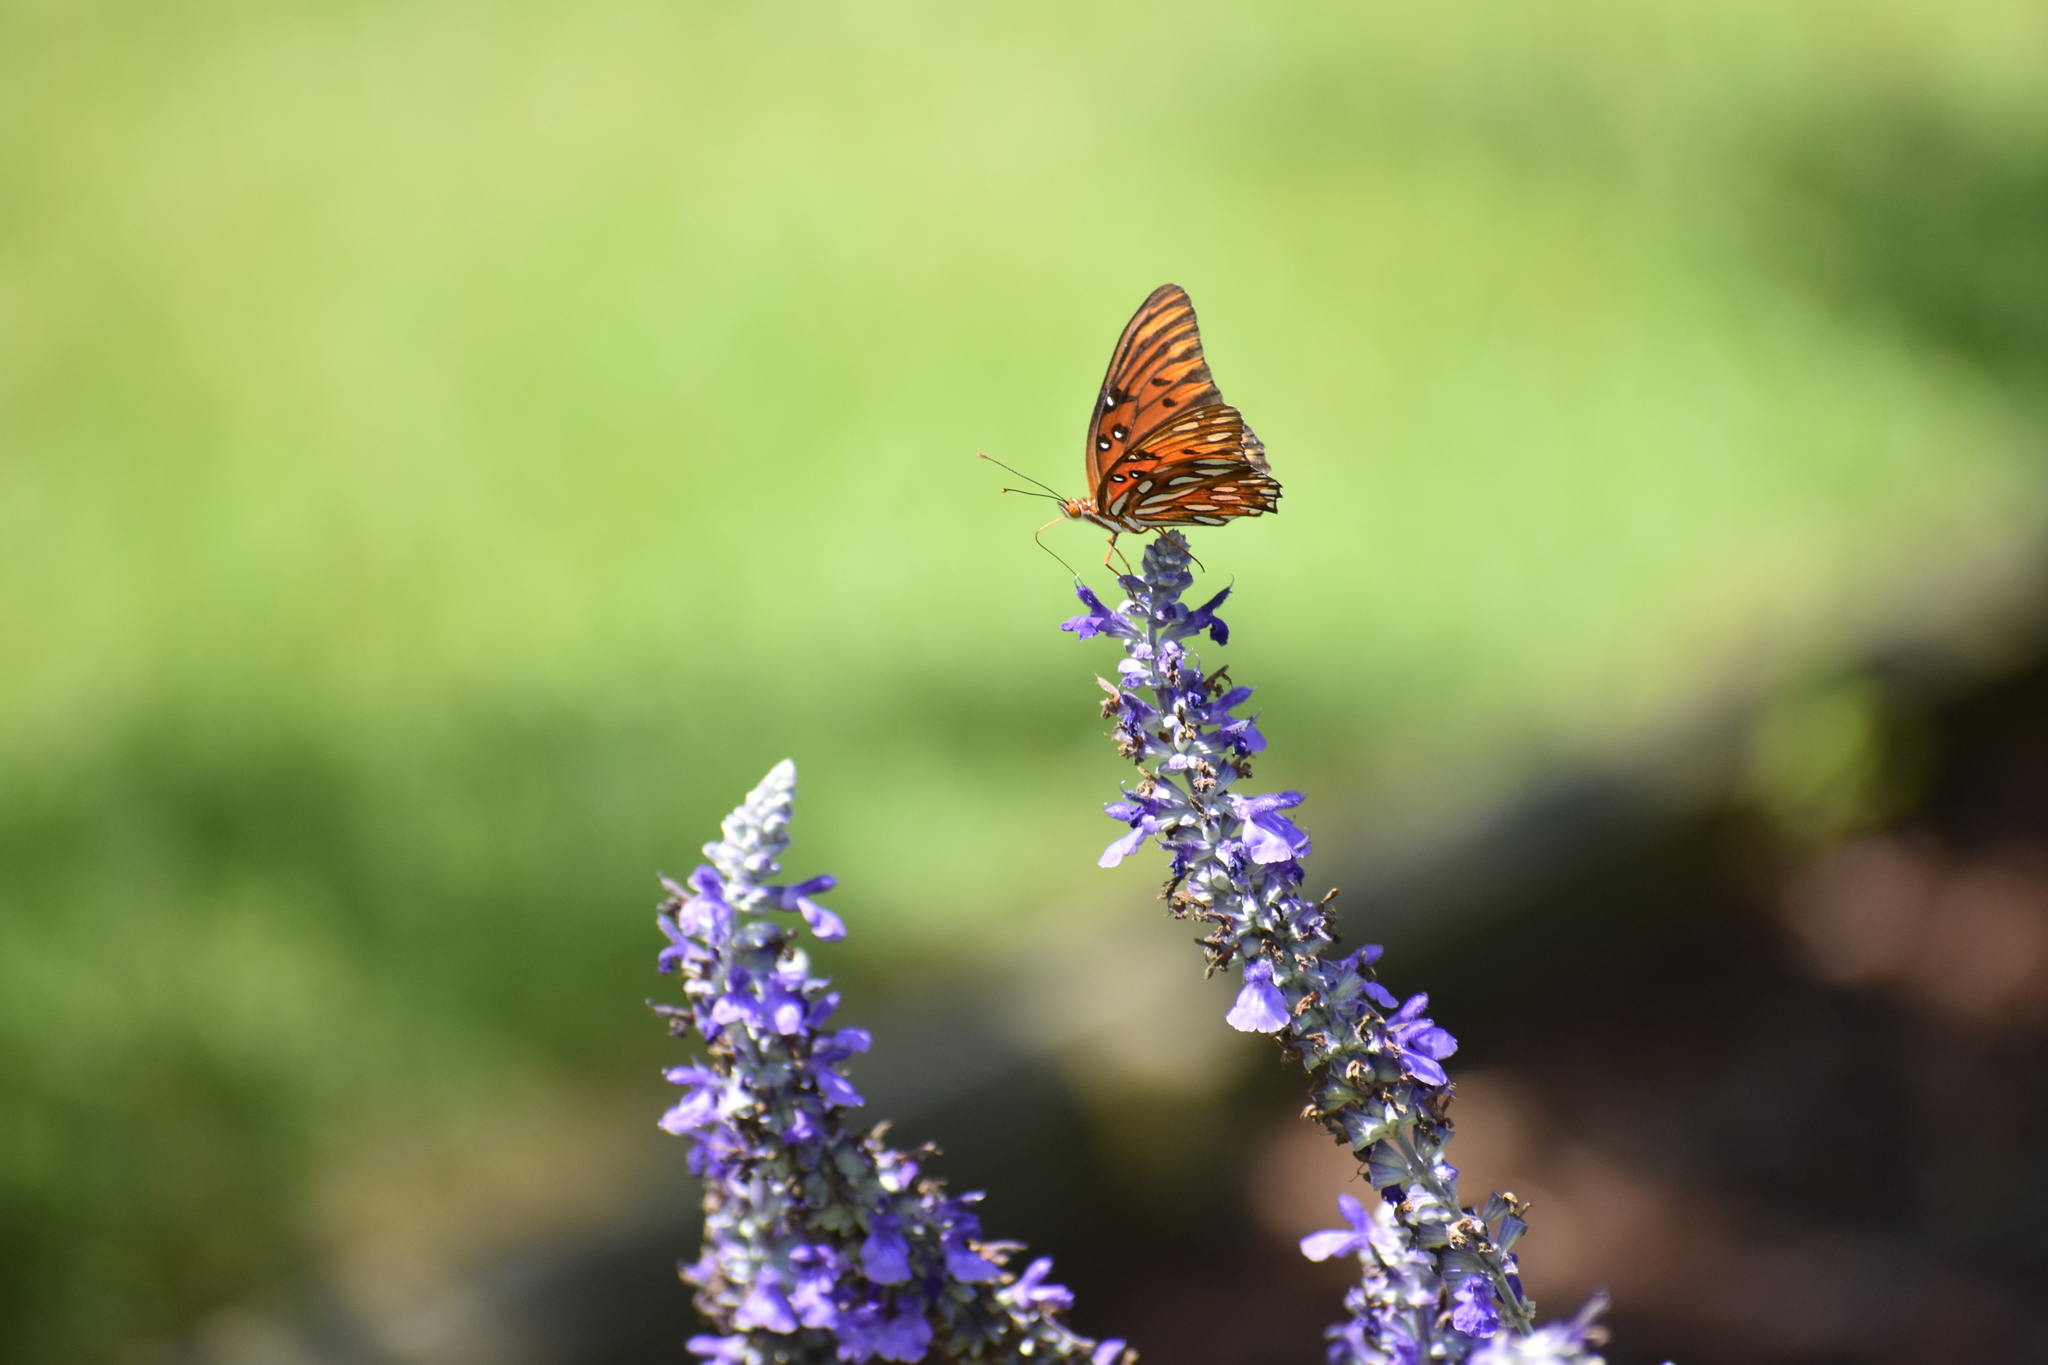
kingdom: Animalia
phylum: Arthropoda
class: Insecta
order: Lepidoptera
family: Nymphalidae
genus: Dione
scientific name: Dione vanillae
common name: Gulf fritillary
